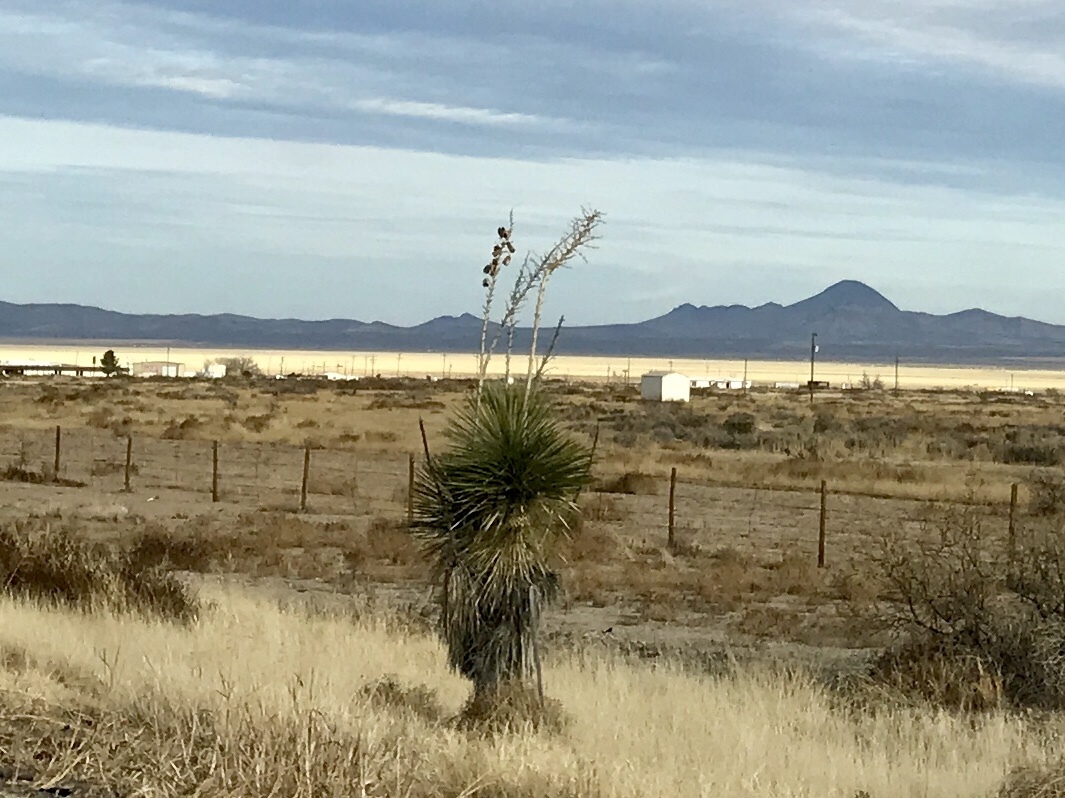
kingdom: Plantae
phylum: Tracheophyta
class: Liliopsida
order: Asparagales
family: Asparagaceae
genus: Yucca
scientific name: Yucca elata
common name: Palmella
